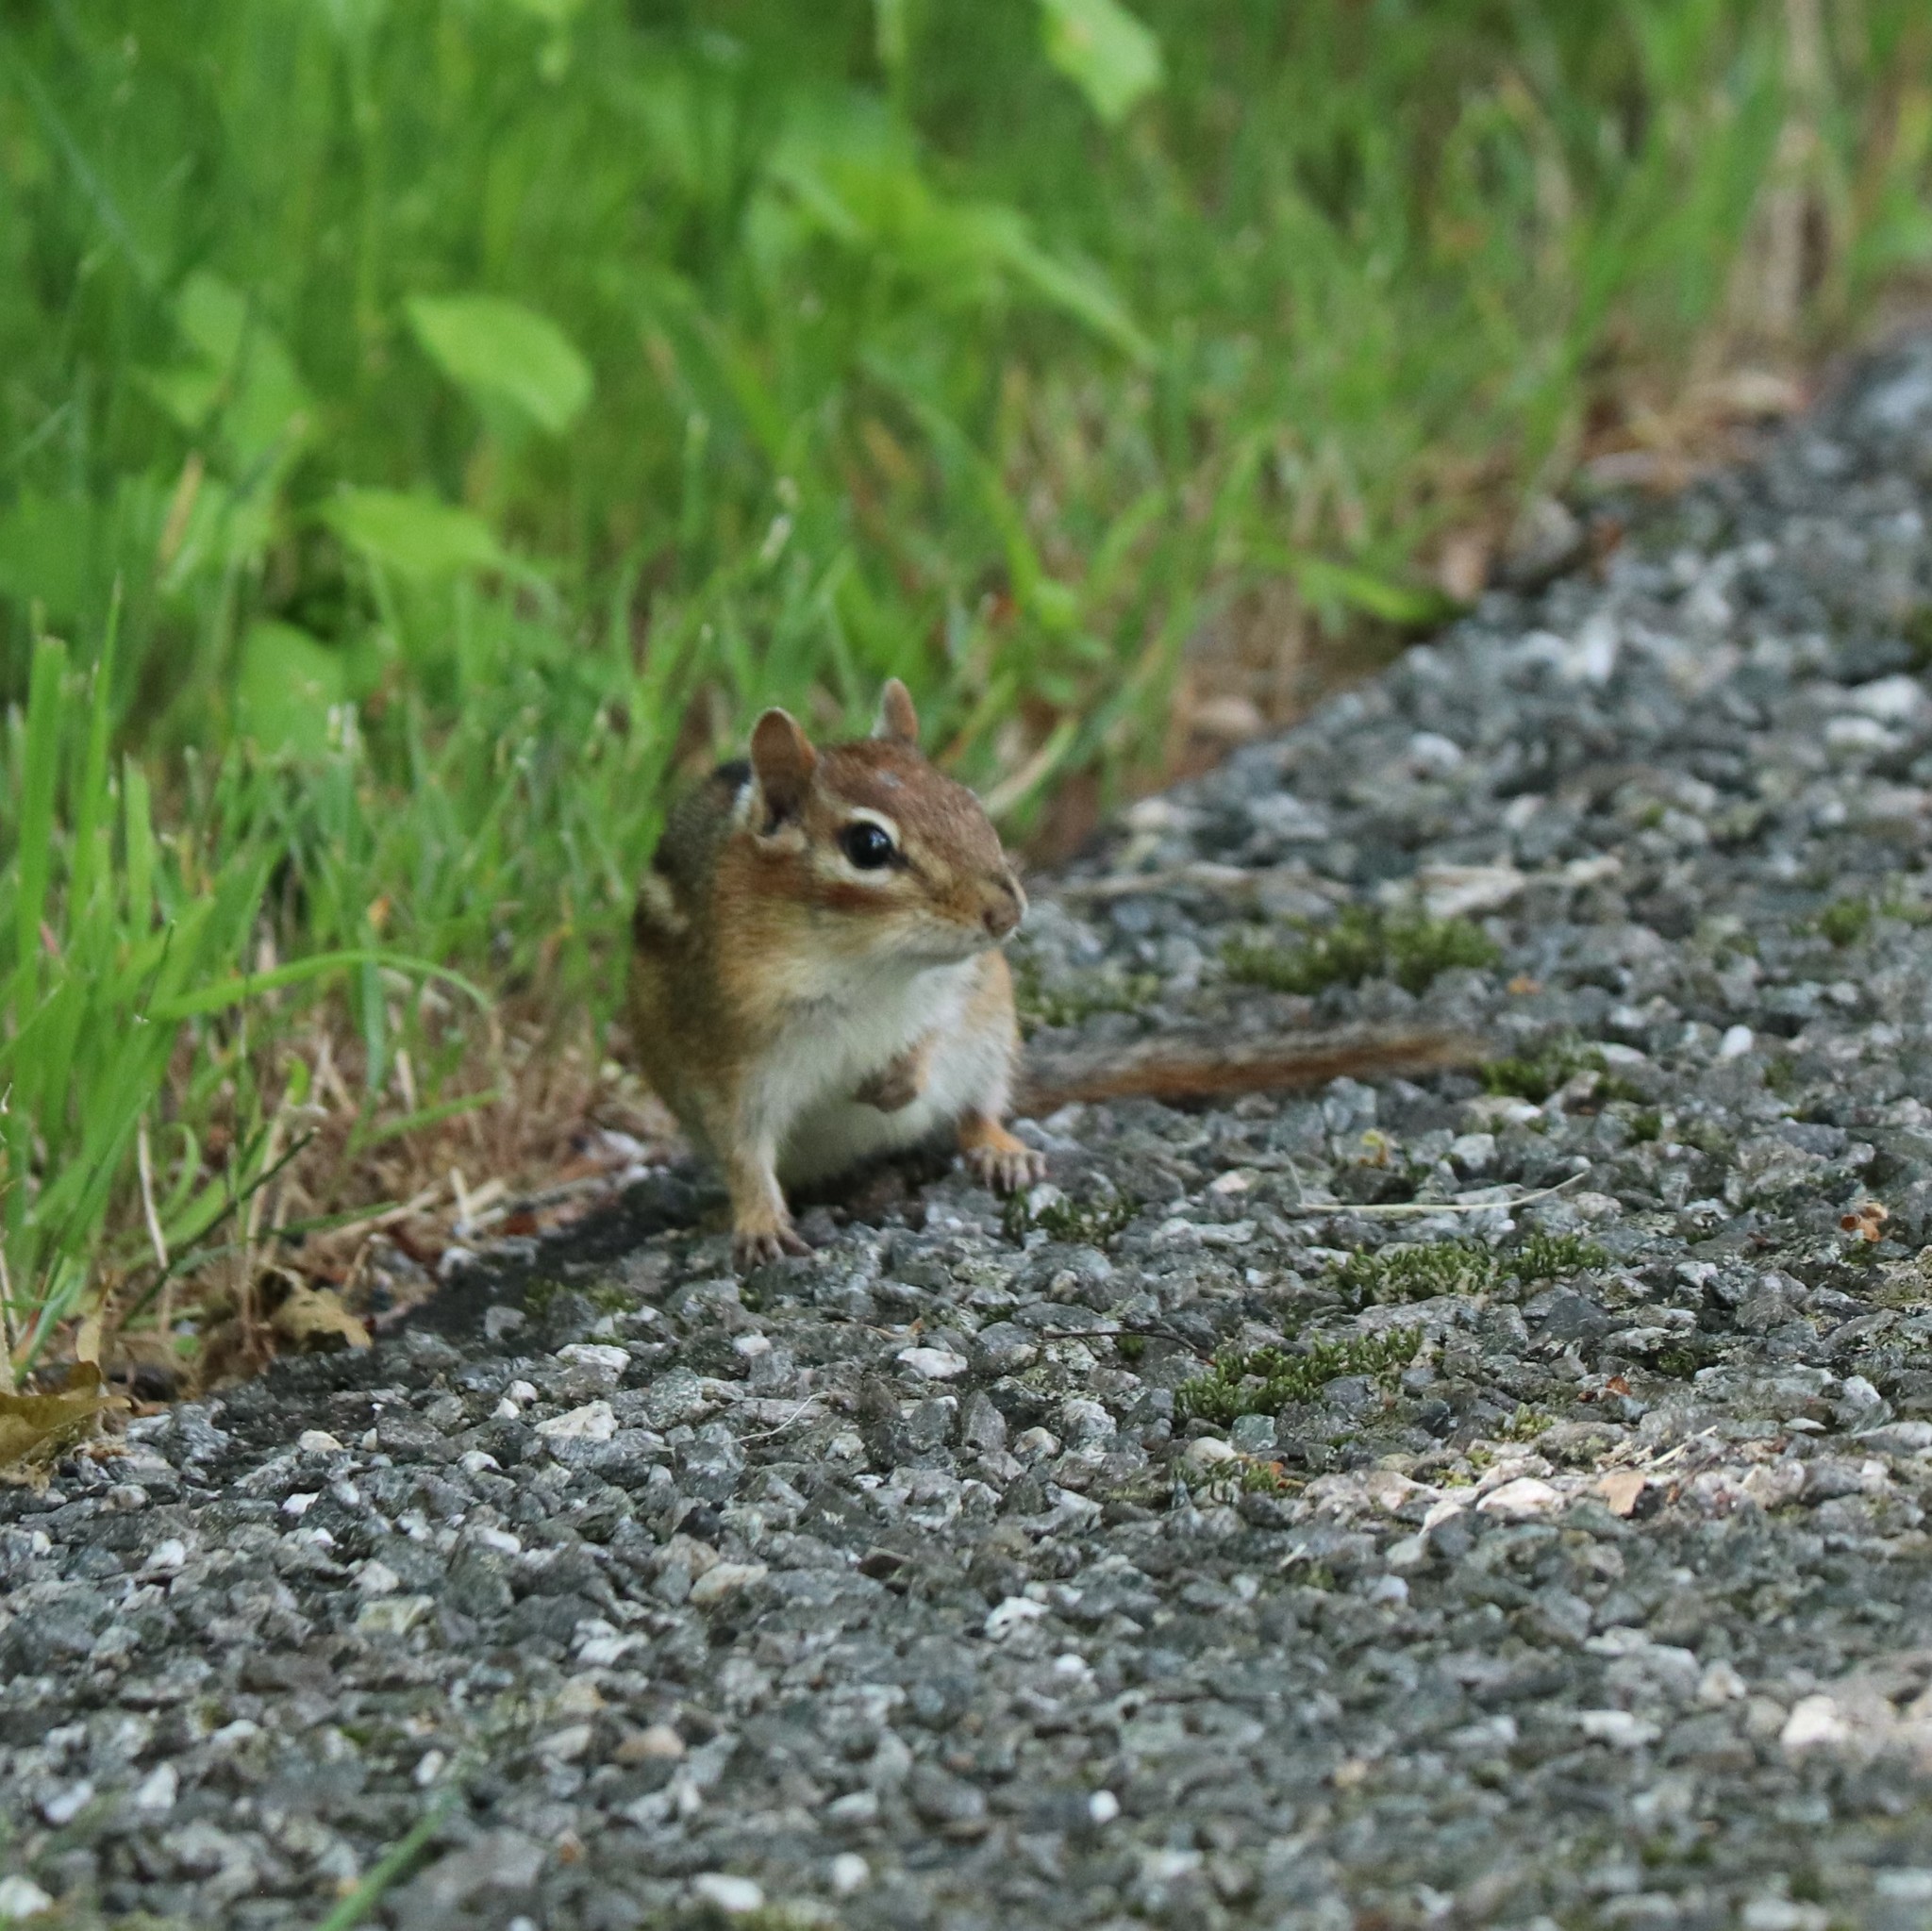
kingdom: Animalia
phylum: Chordata
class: Mammalia
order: Rodentia
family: Sciuridae
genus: Tamias
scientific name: Tamias striatus
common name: Eastern chipmunk
